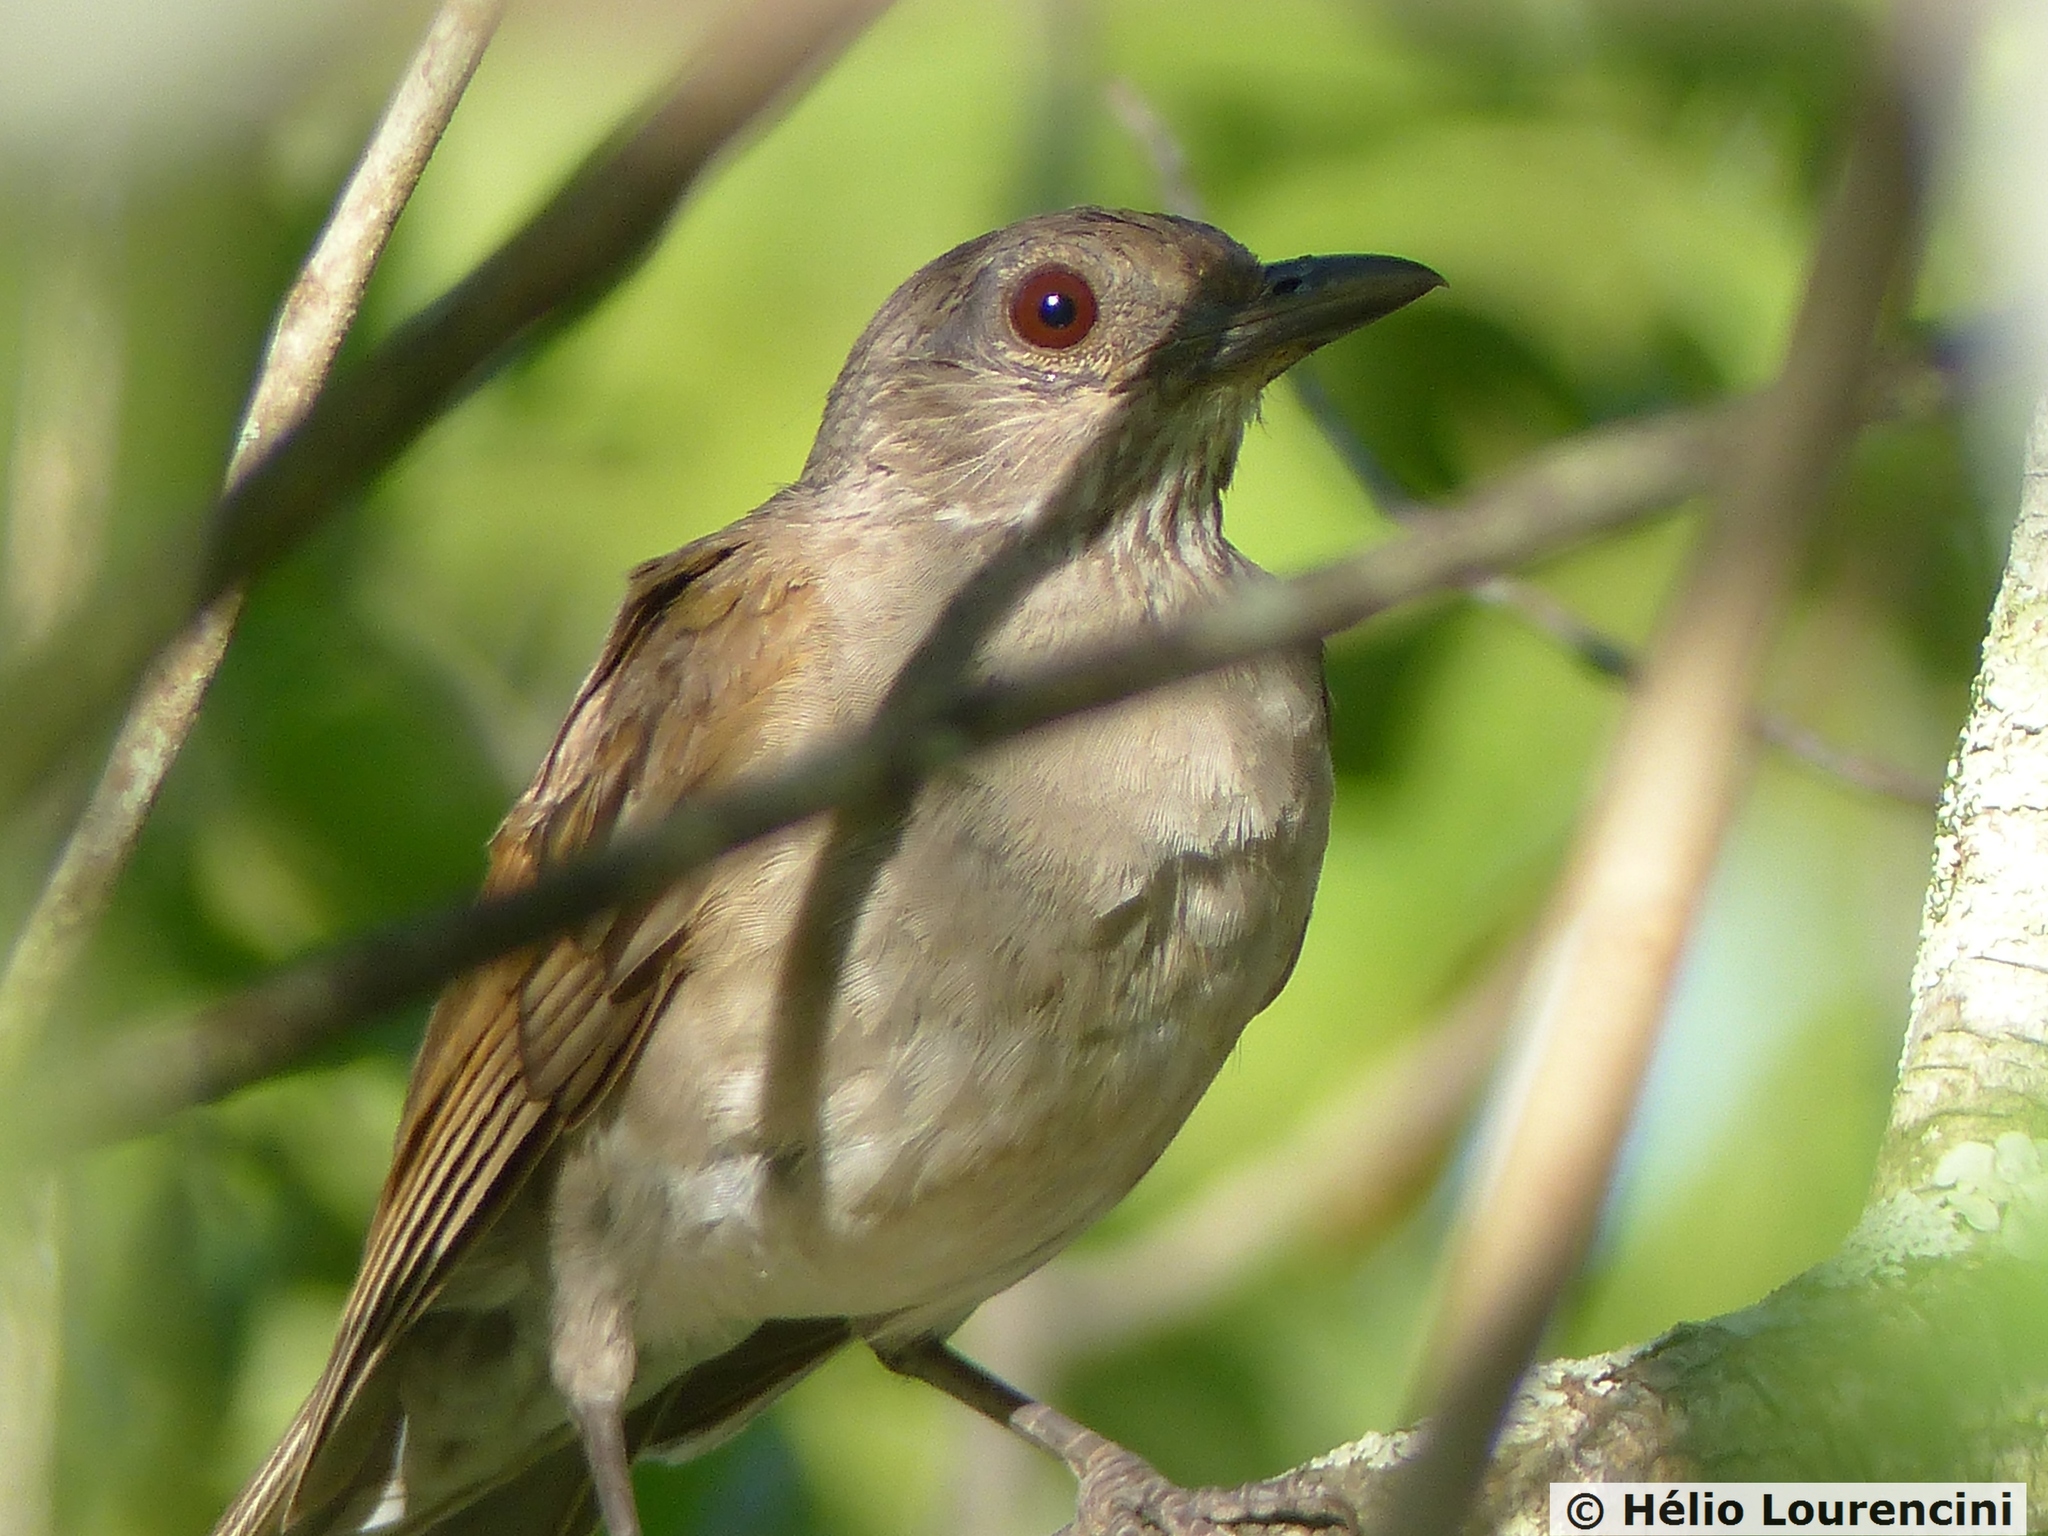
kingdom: Animalia
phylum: Chordata
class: Aves
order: Passeriformes
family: Turdidae
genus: Turdus
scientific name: Turdus leucomelas
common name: Pale-breasted thrush
